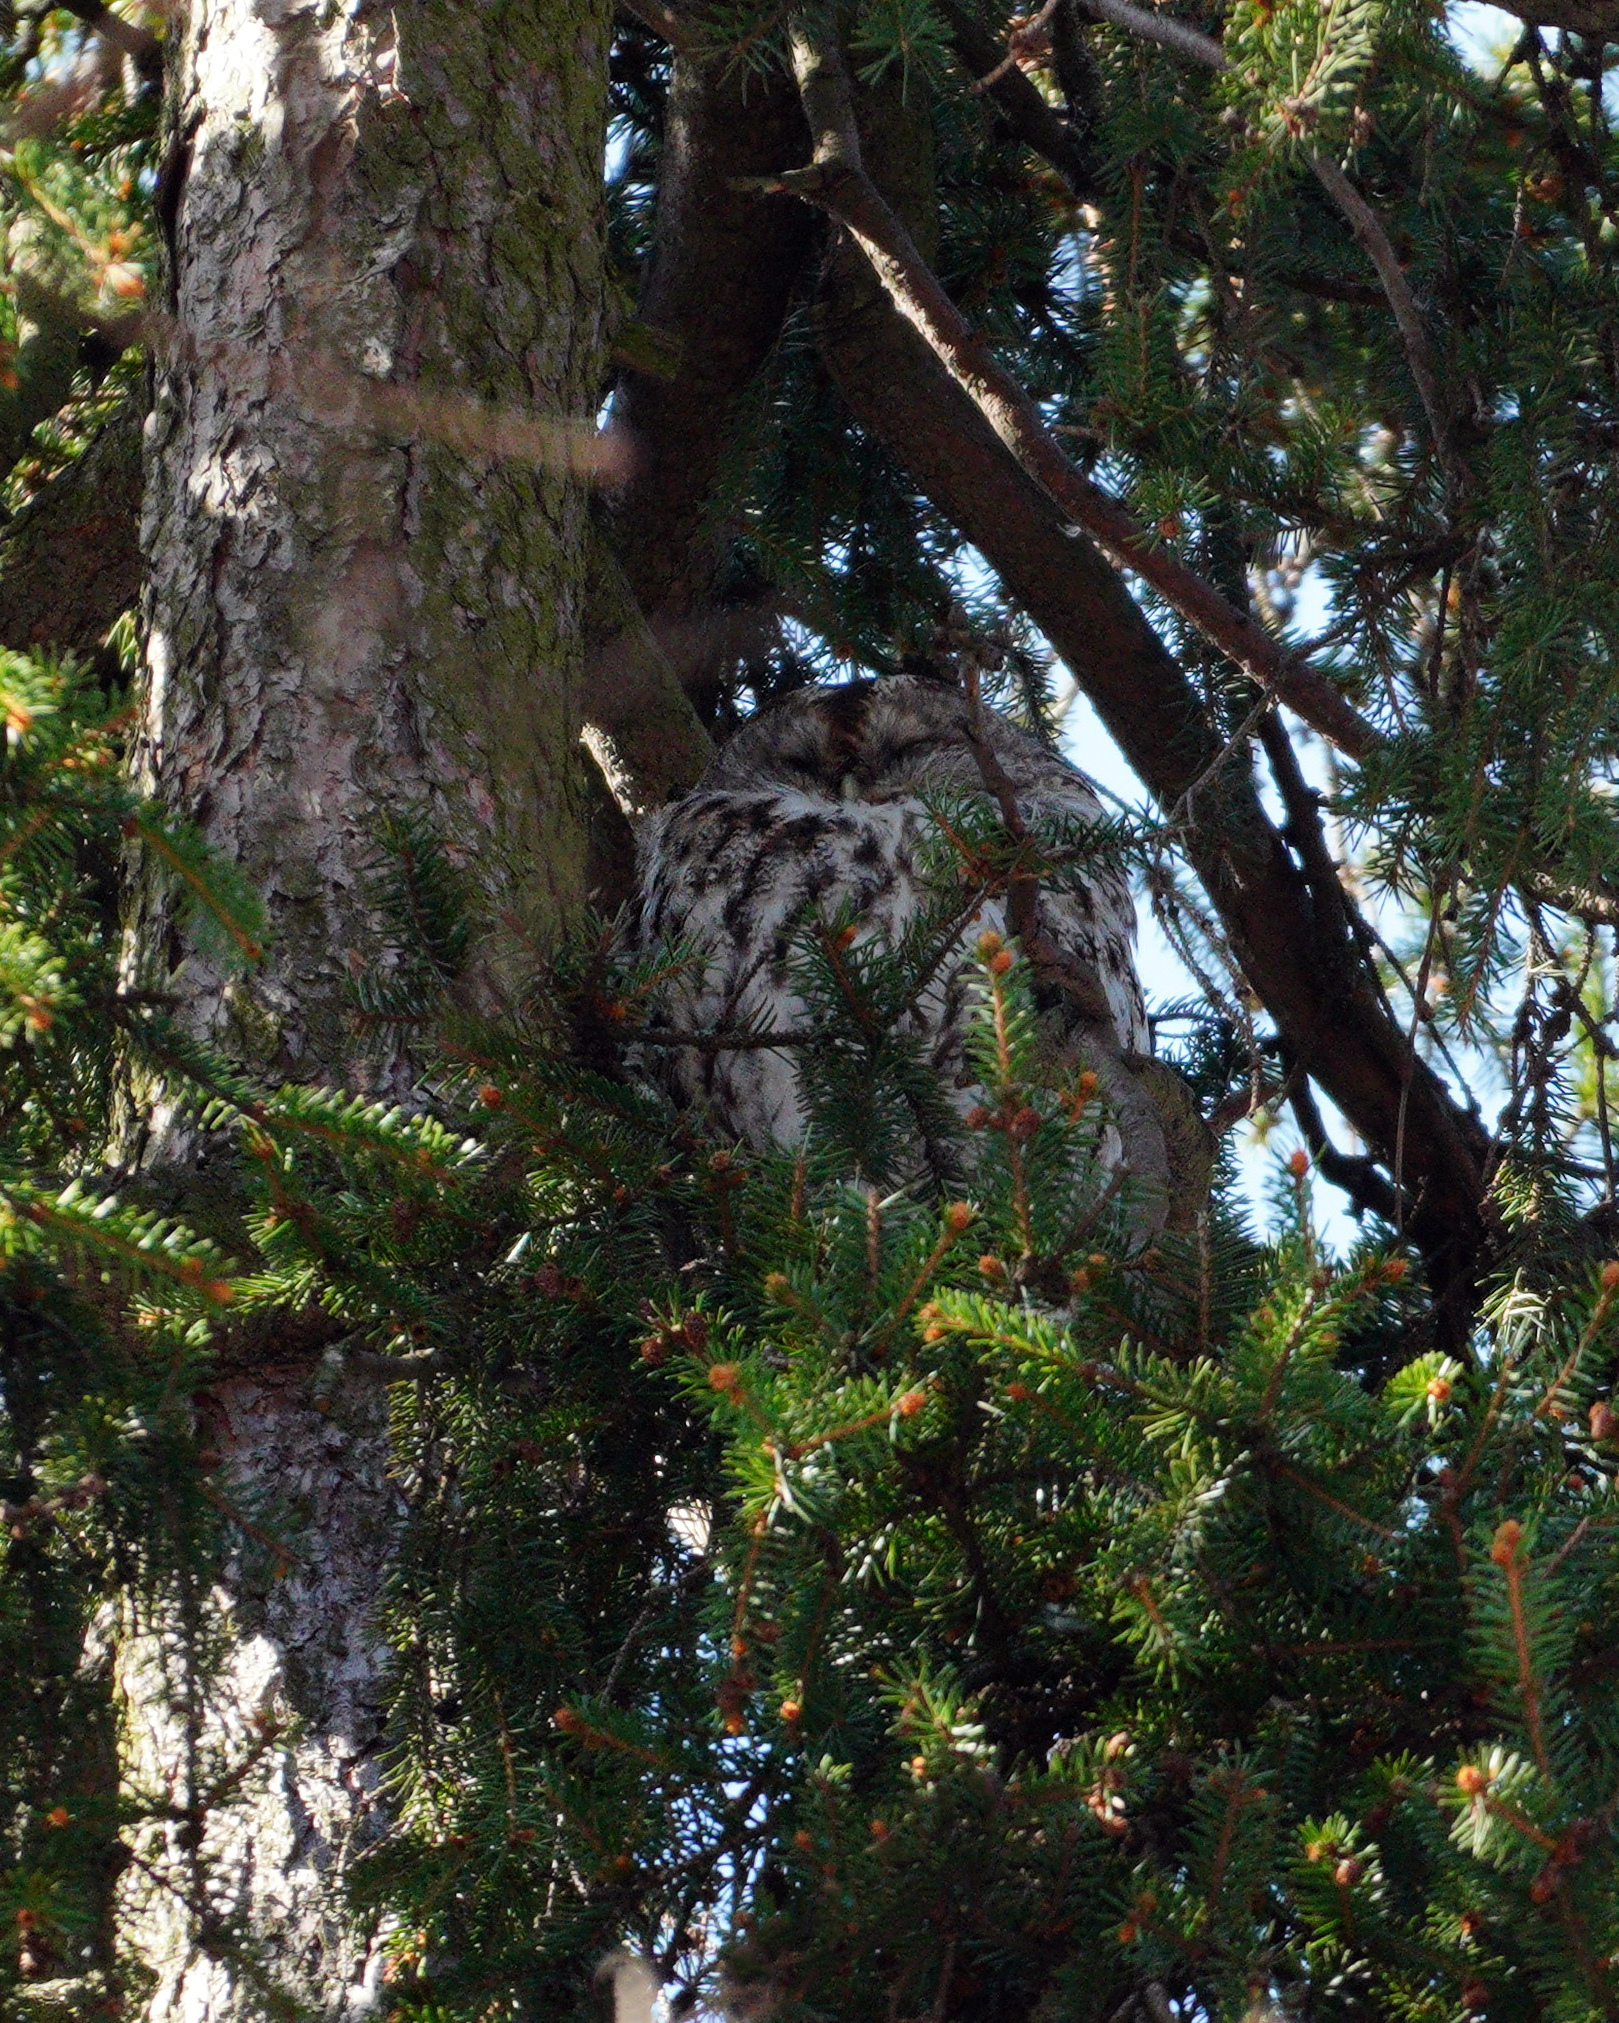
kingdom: Animalia
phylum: Chordata
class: Aves
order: Strigiformes
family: Strigidae
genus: Strix
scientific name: Strix aluco
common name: Tawny owl
